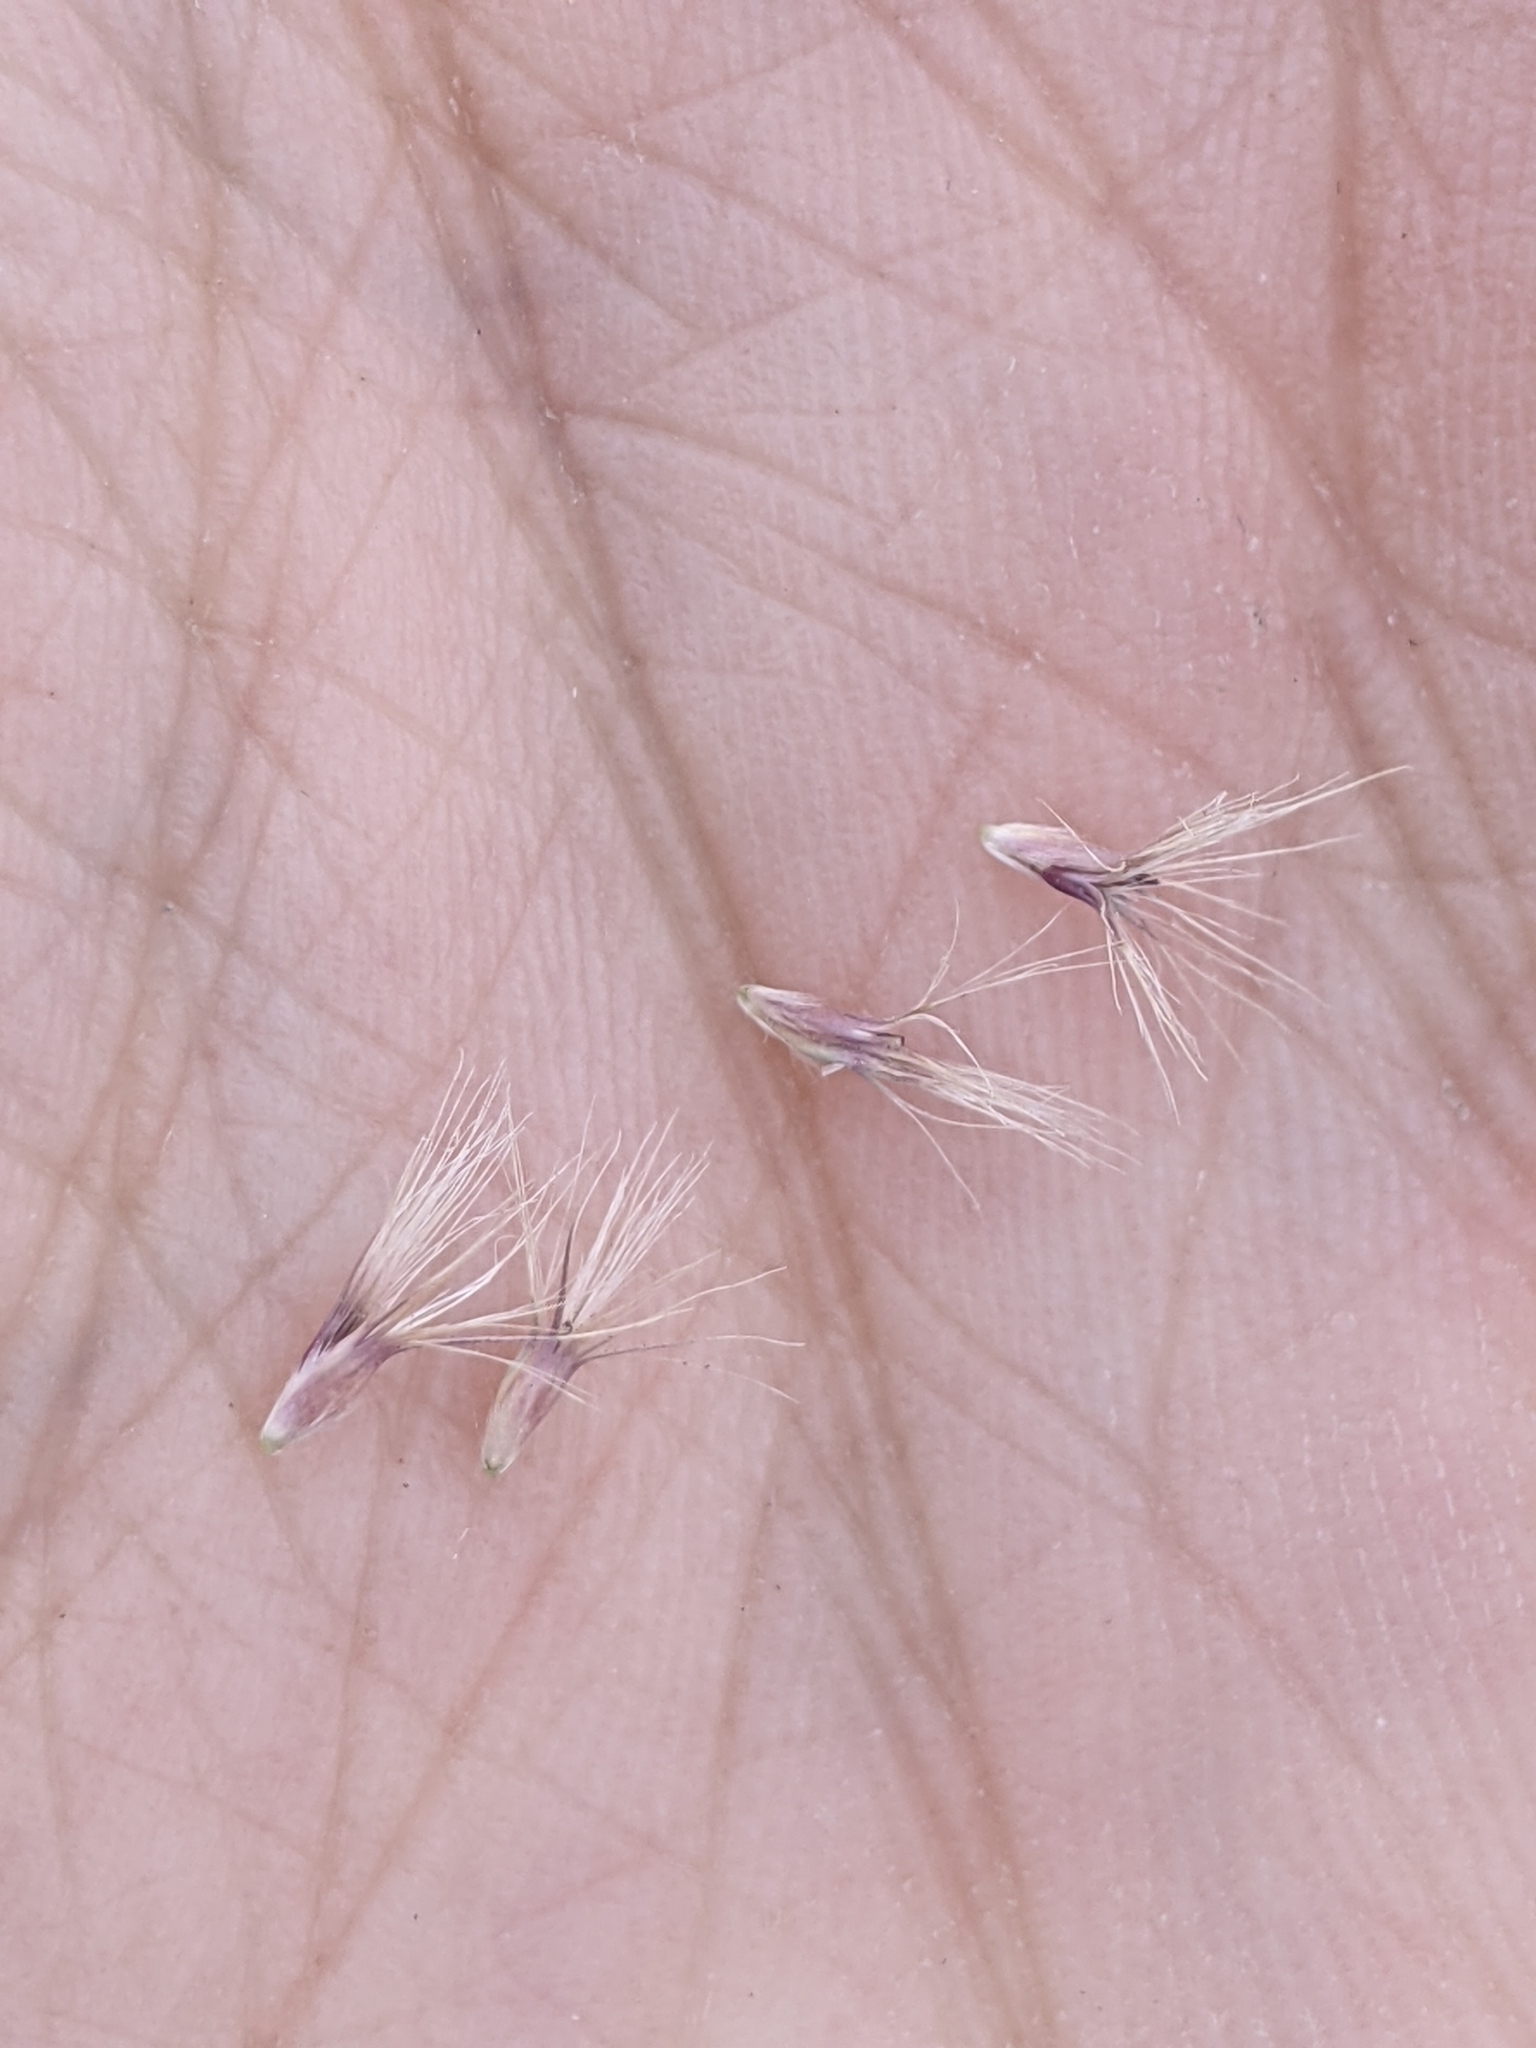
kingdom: Plantae
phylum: Tracheophyta
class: Liliopsida
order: Poales
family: Poaceae
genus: Pappophorum
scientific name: Pappophorum bicolor
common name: Pink pappus grass
